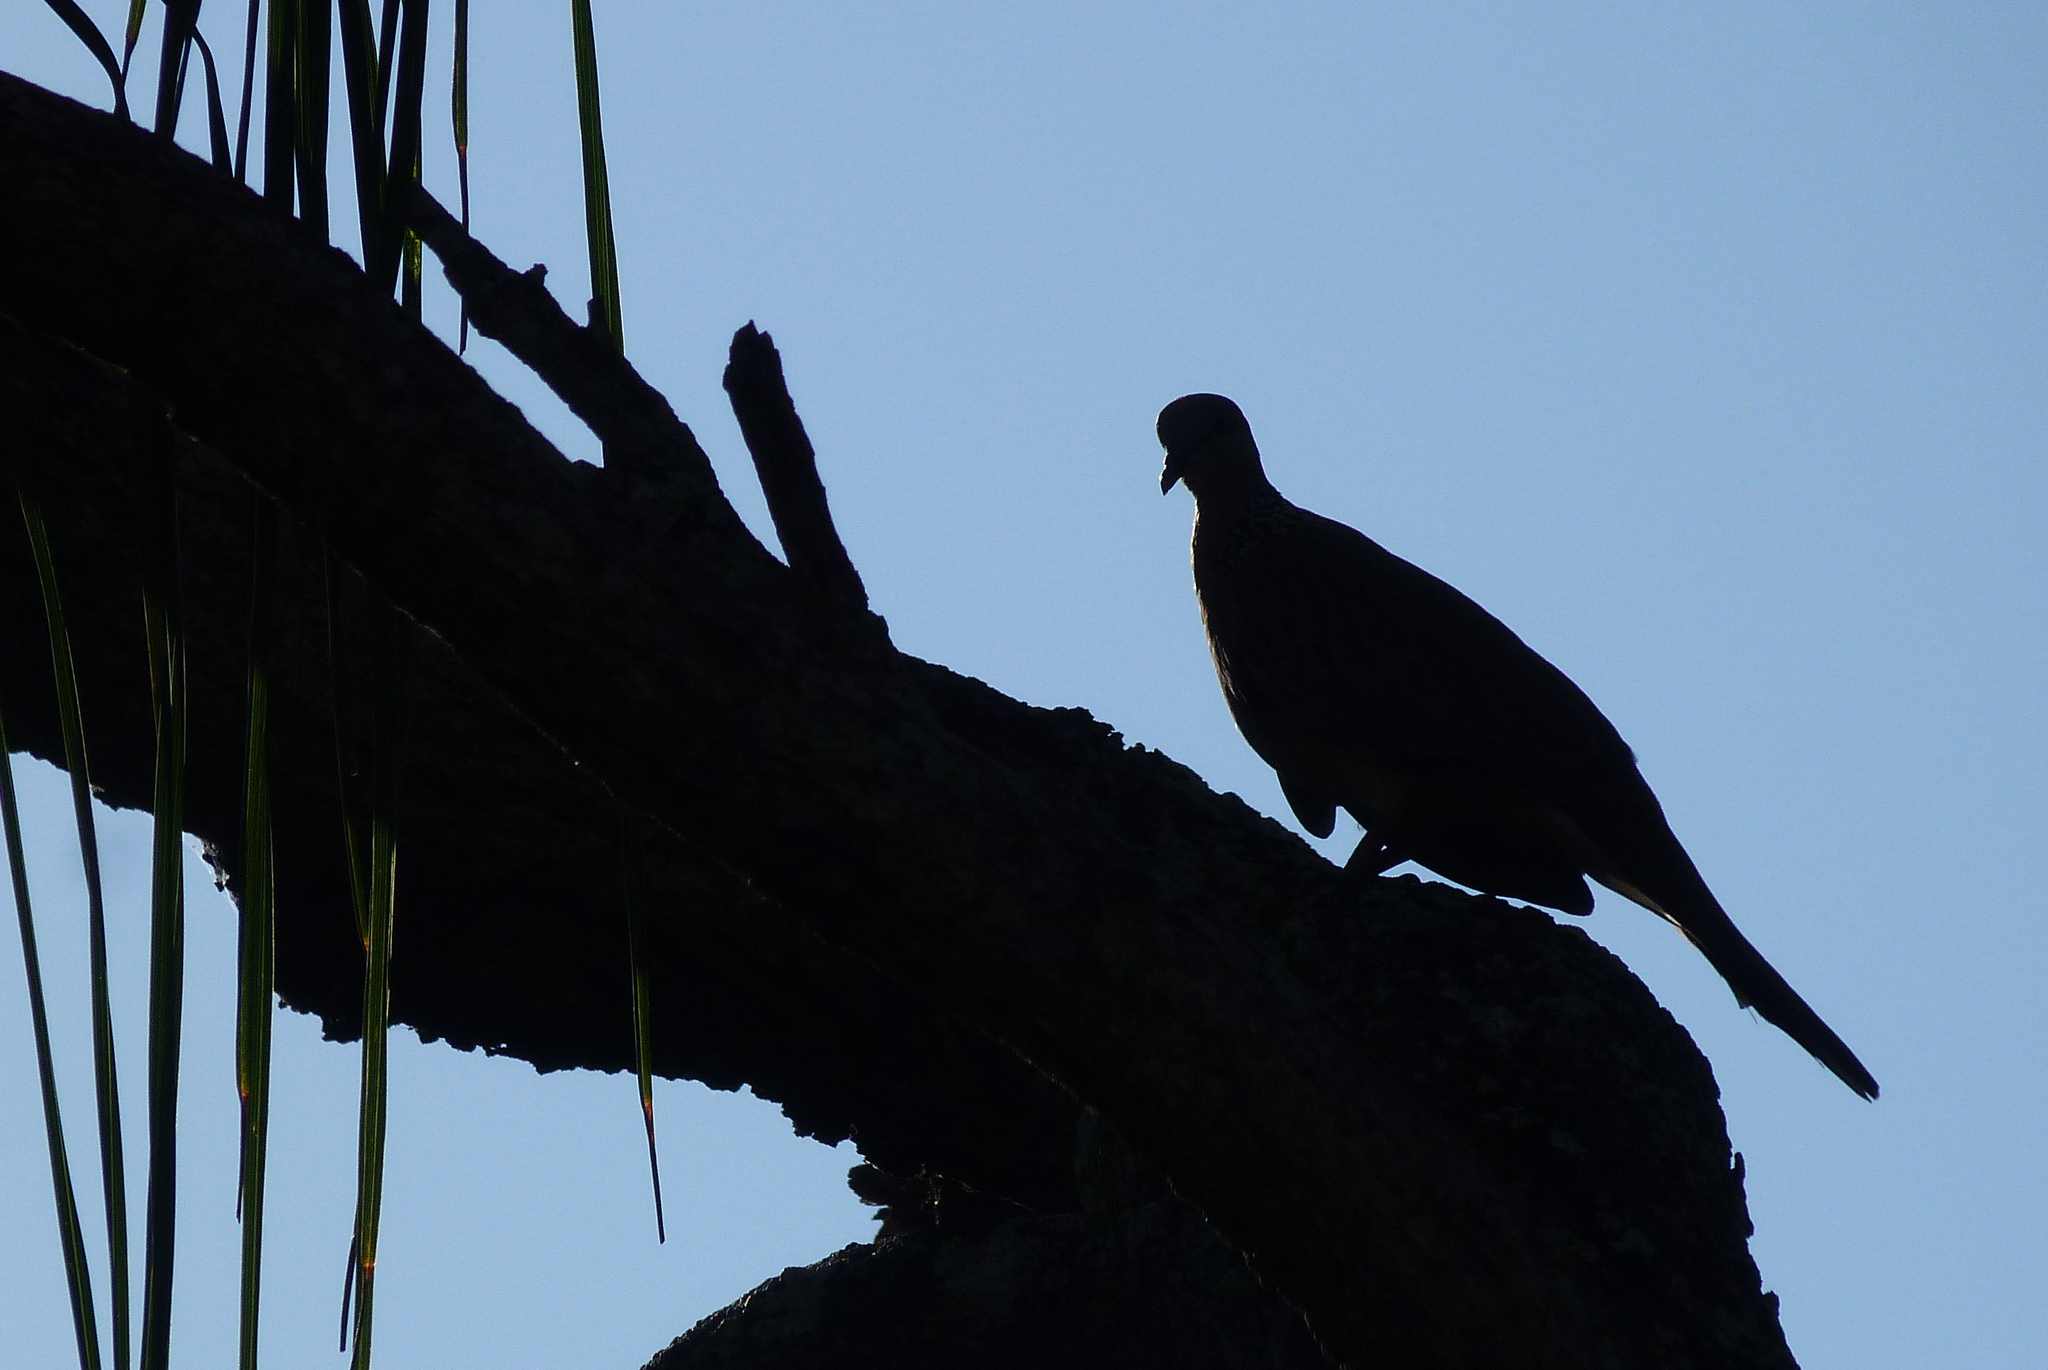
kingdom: Animalia
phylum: Chordata
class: Aves
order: Columbiformes
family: Columbidae
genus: Spilopelia
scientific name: Spilopelia chinensis
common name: Spotted dove
